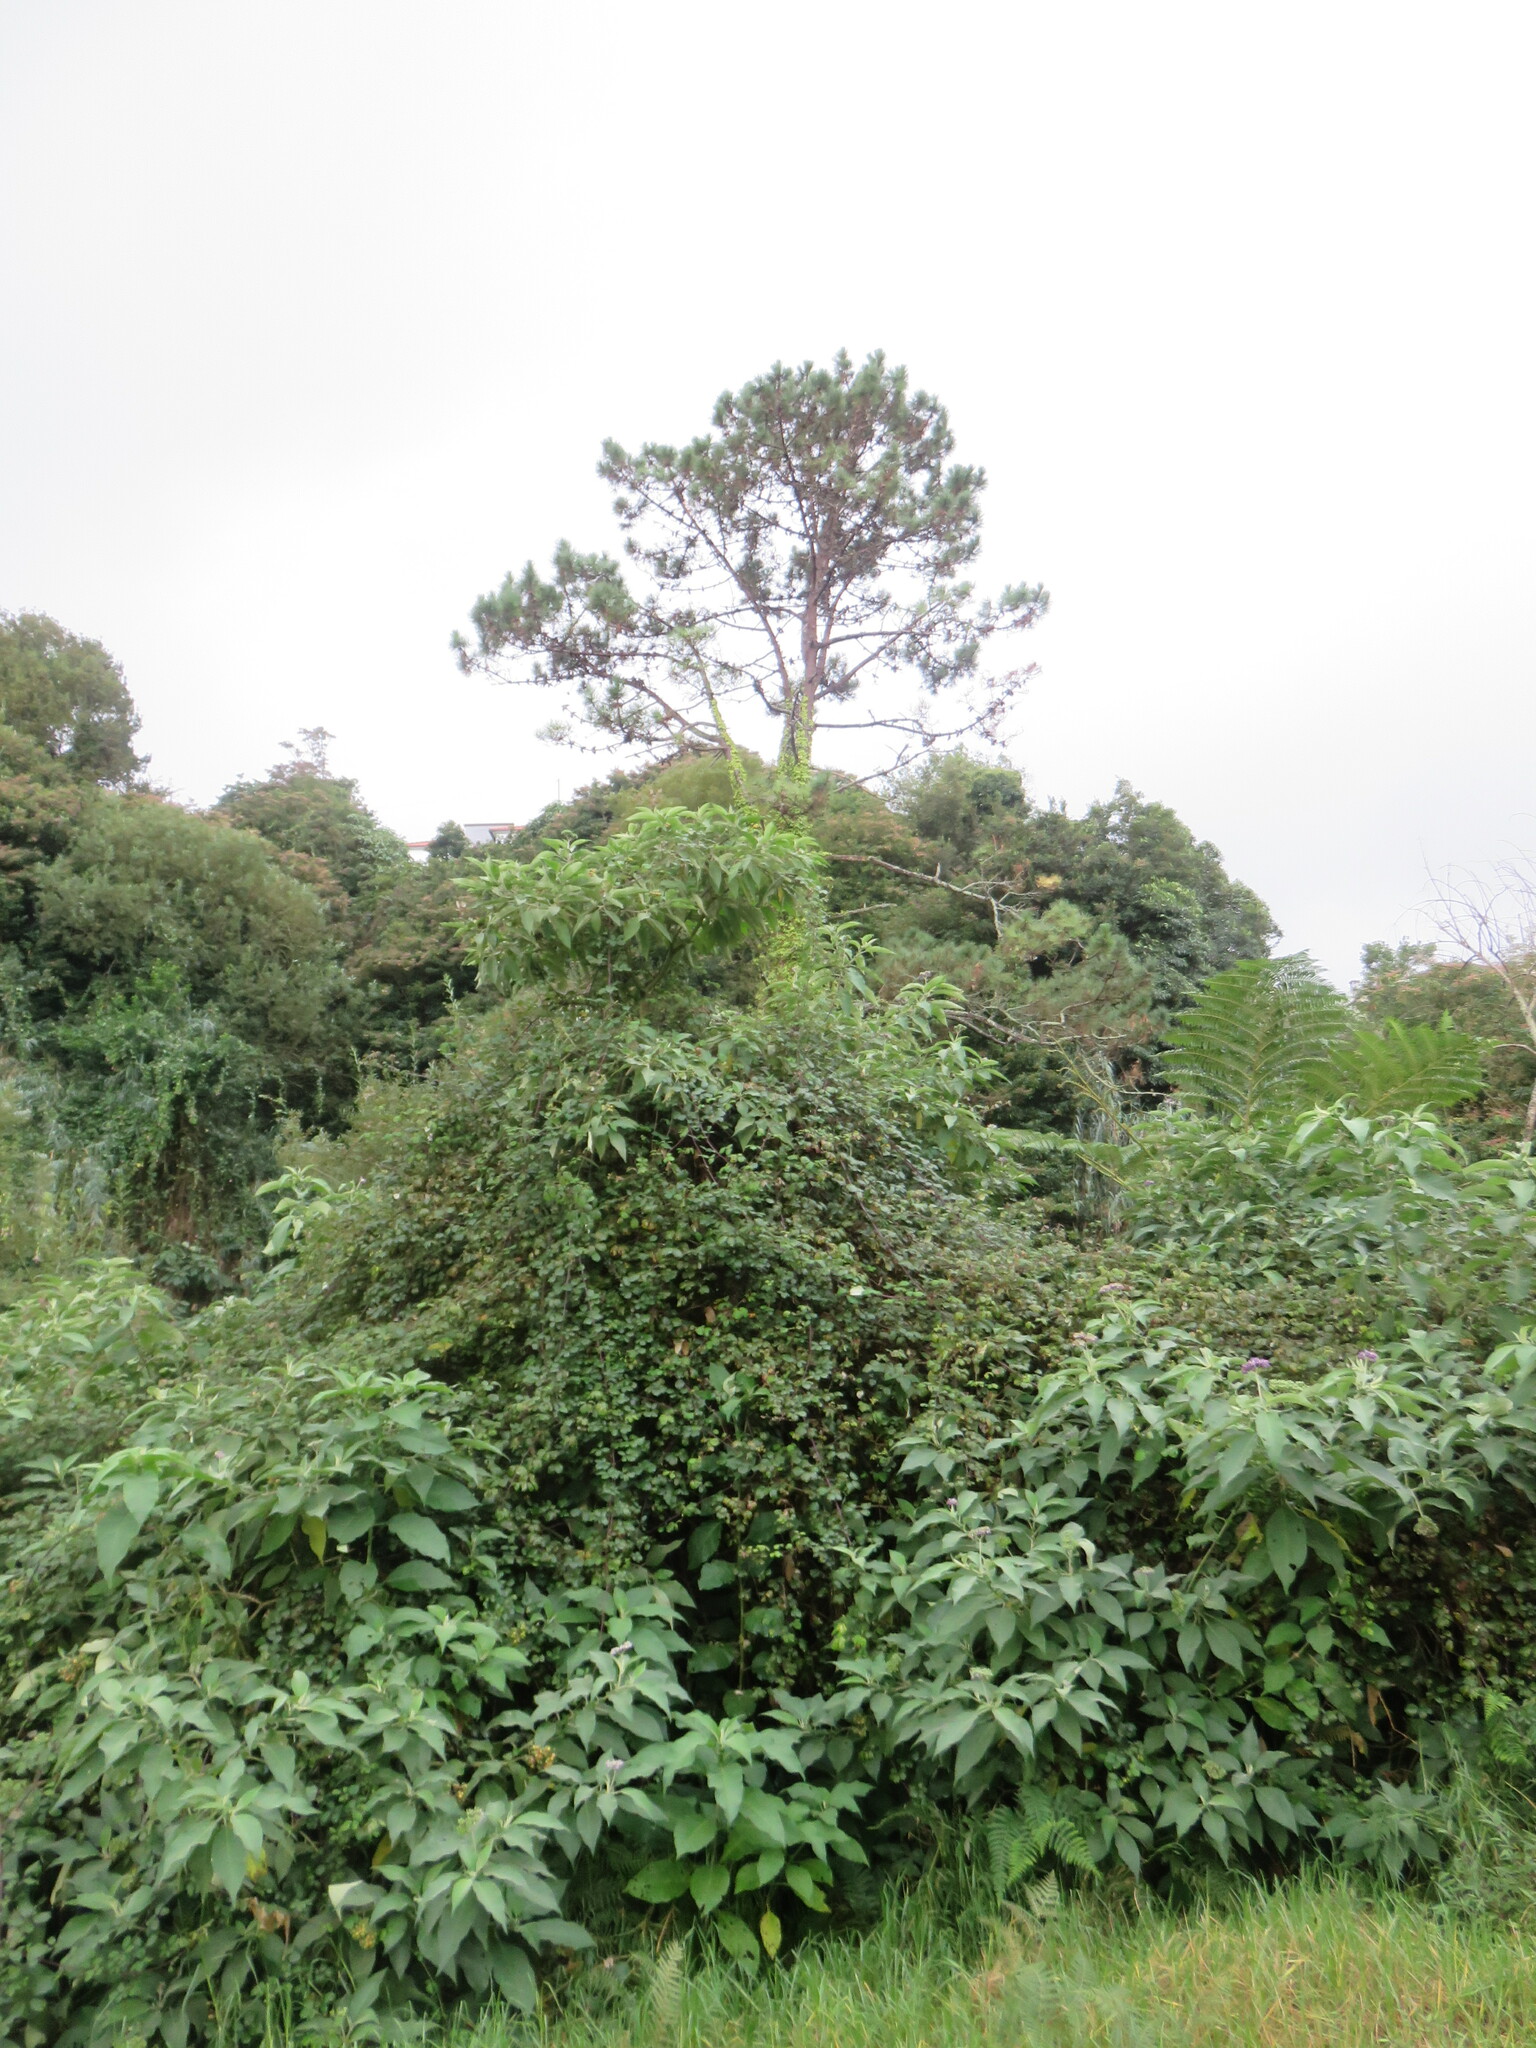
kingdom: Plantae
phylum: Tracheophyta
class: Magnoliopsida
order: Solanales
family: Solanaceae
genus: Solanum
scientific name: Solanum mauritianum
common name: Earleaf nightshade
